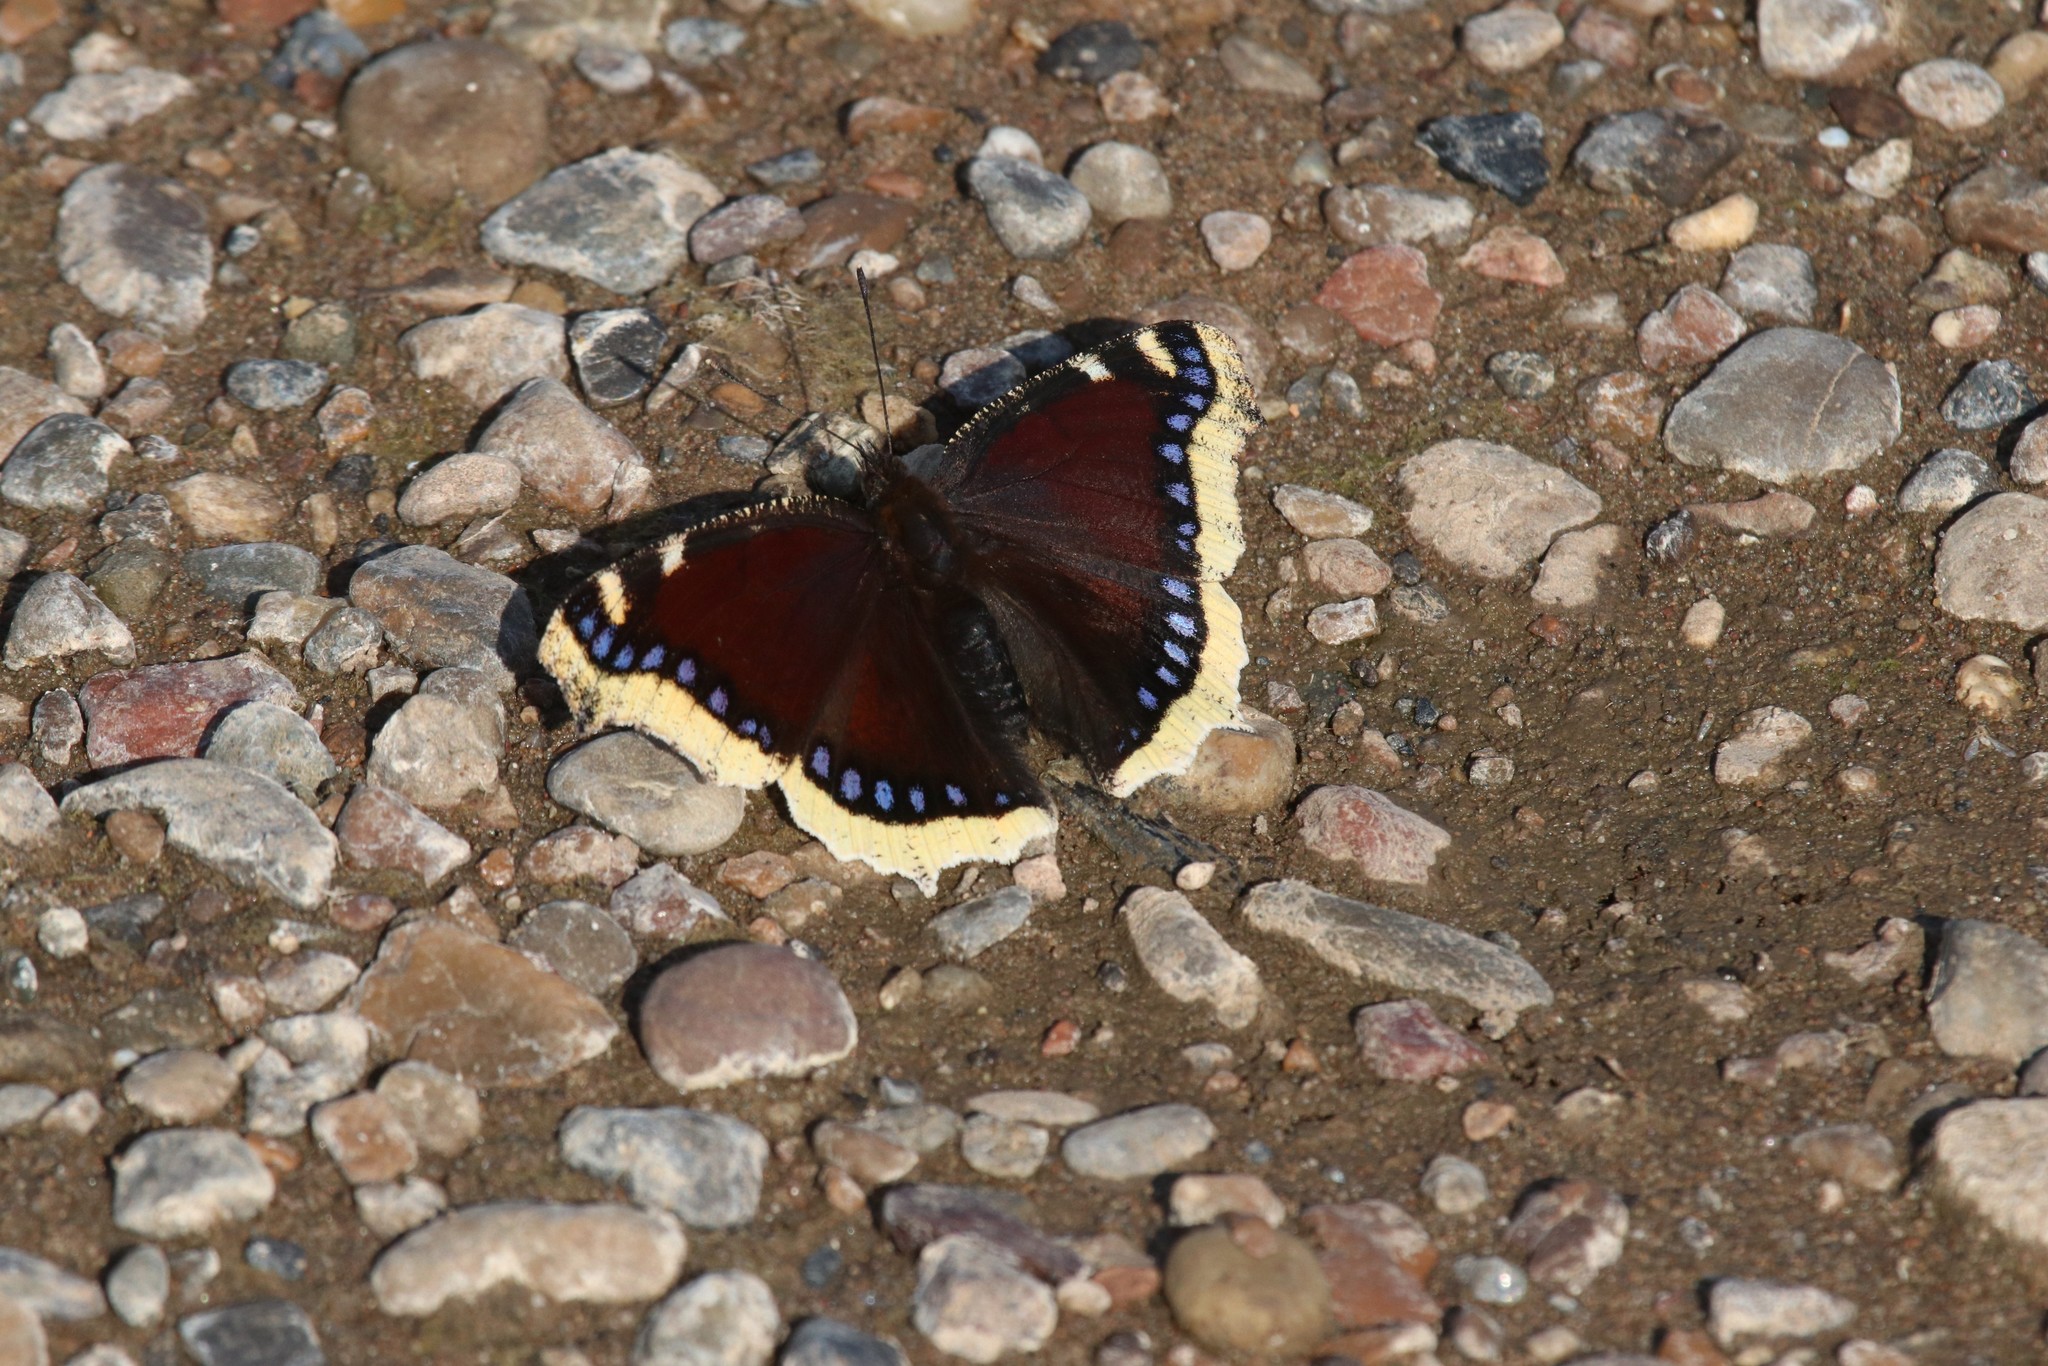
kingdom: Animalia
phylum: Arthropoda
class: Insecta
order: Lepidoptera
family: Nymphalidae
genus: Nymphalis
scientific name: Nymphalis antiopa
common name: Camberwell beauty
